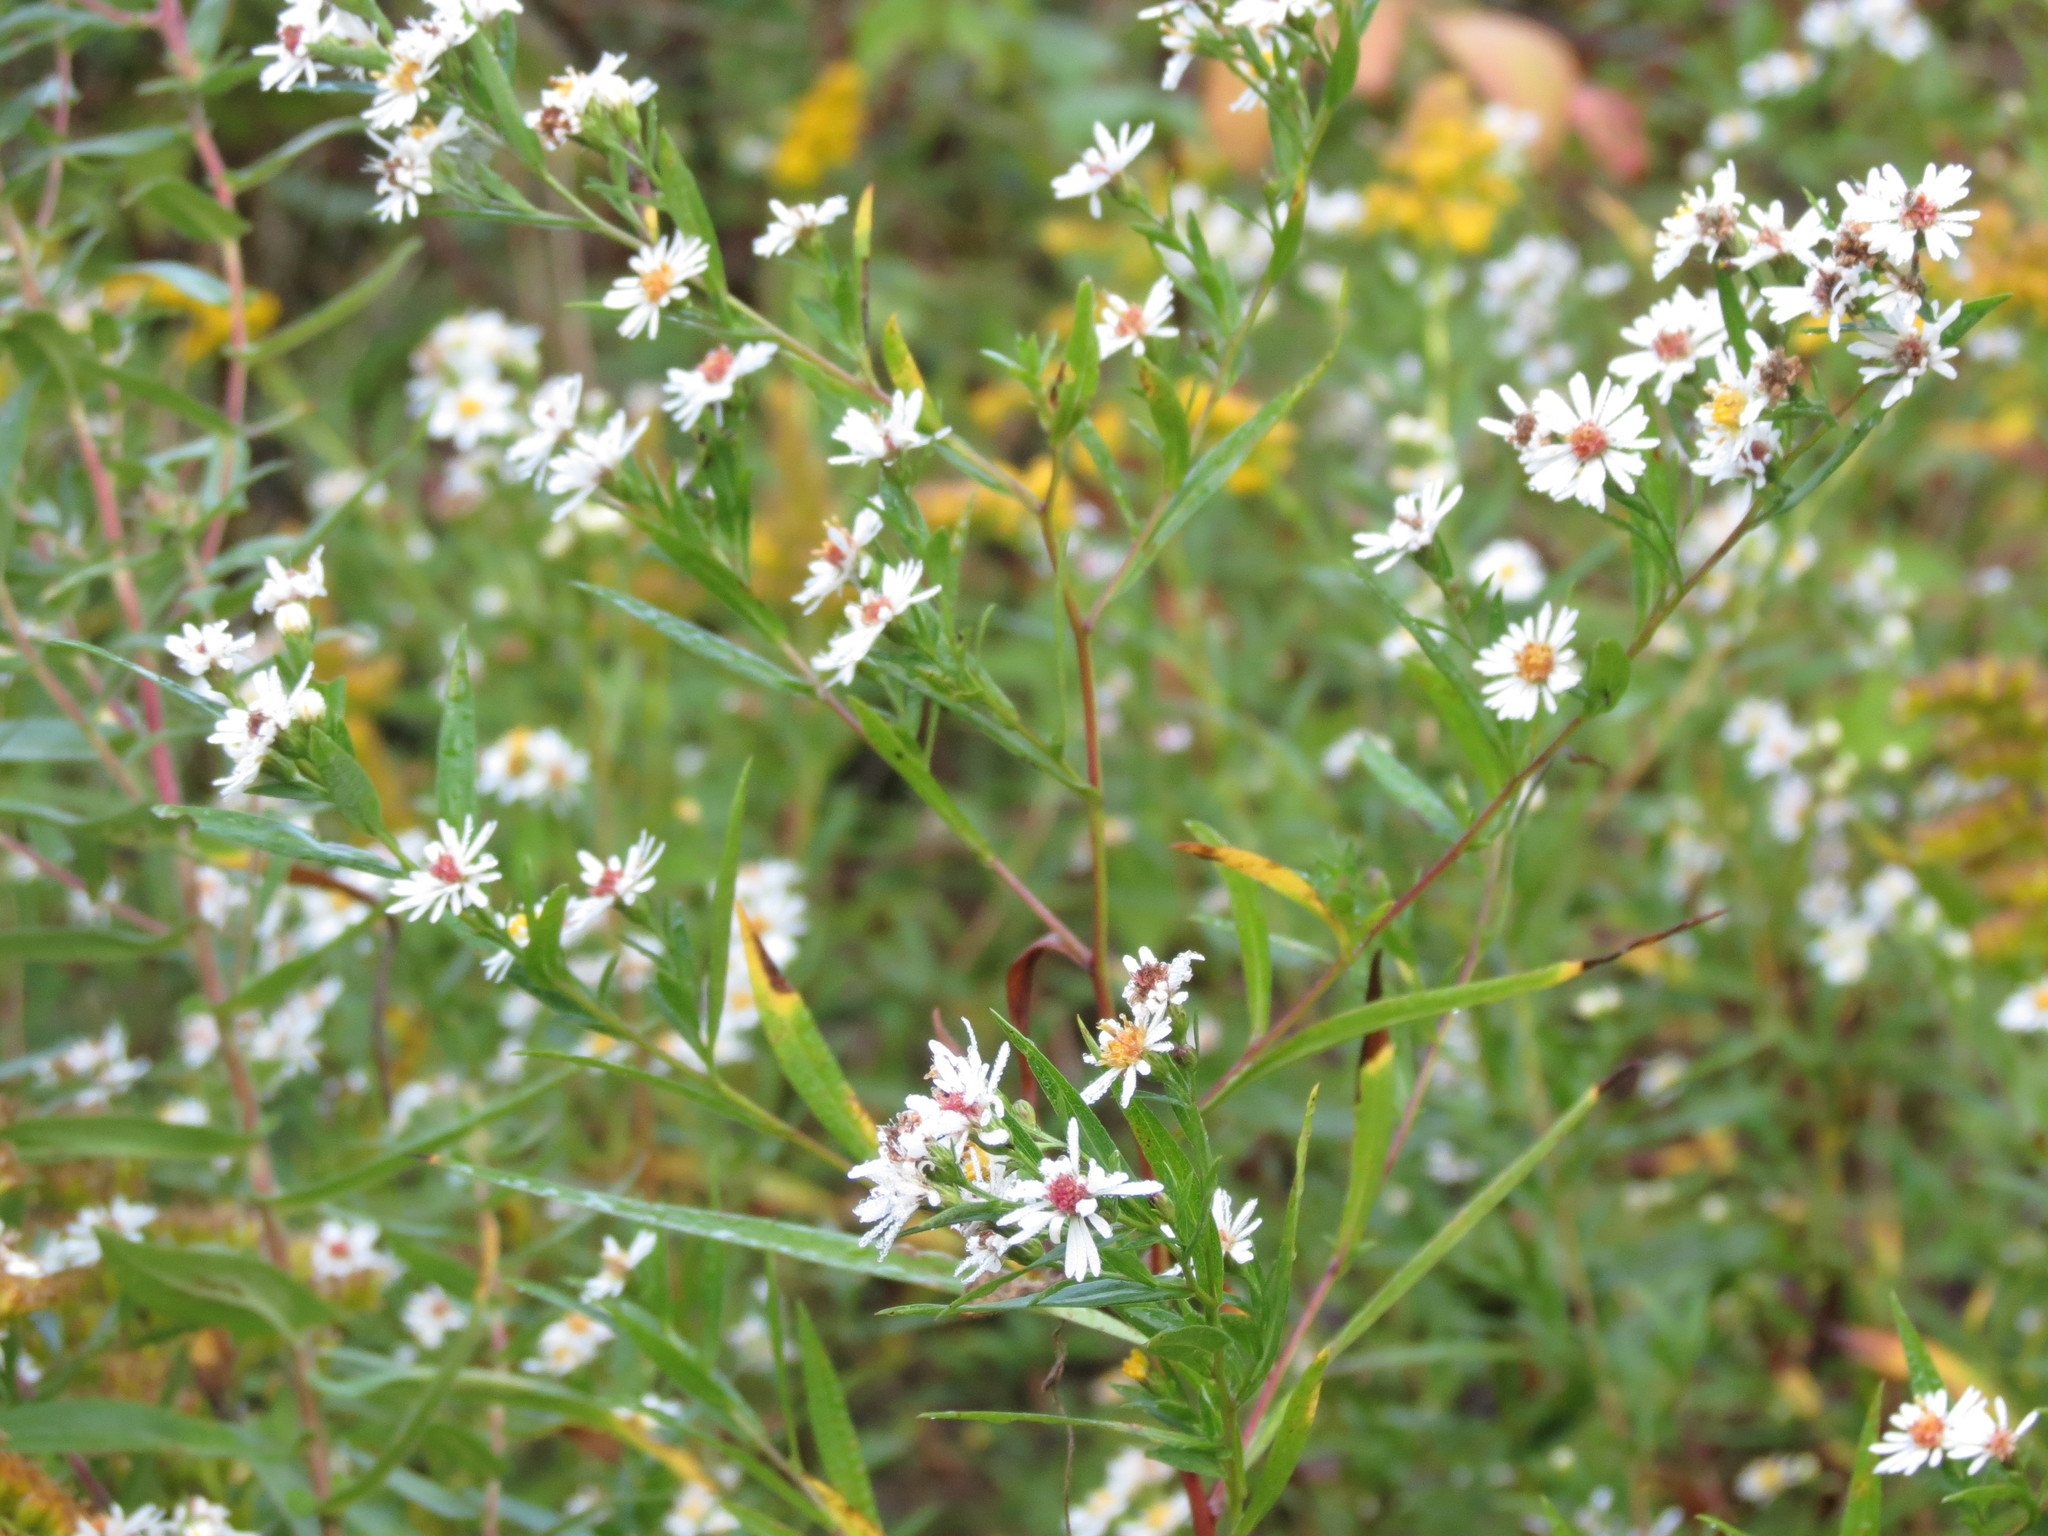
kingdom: Plantae
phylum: Tracheophyta
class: Magnoliopsida
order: Asterales
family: Asteraceae
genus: Symphyotrichum
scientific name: Symphyotrichum lanceolatum
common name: Panicled aster
